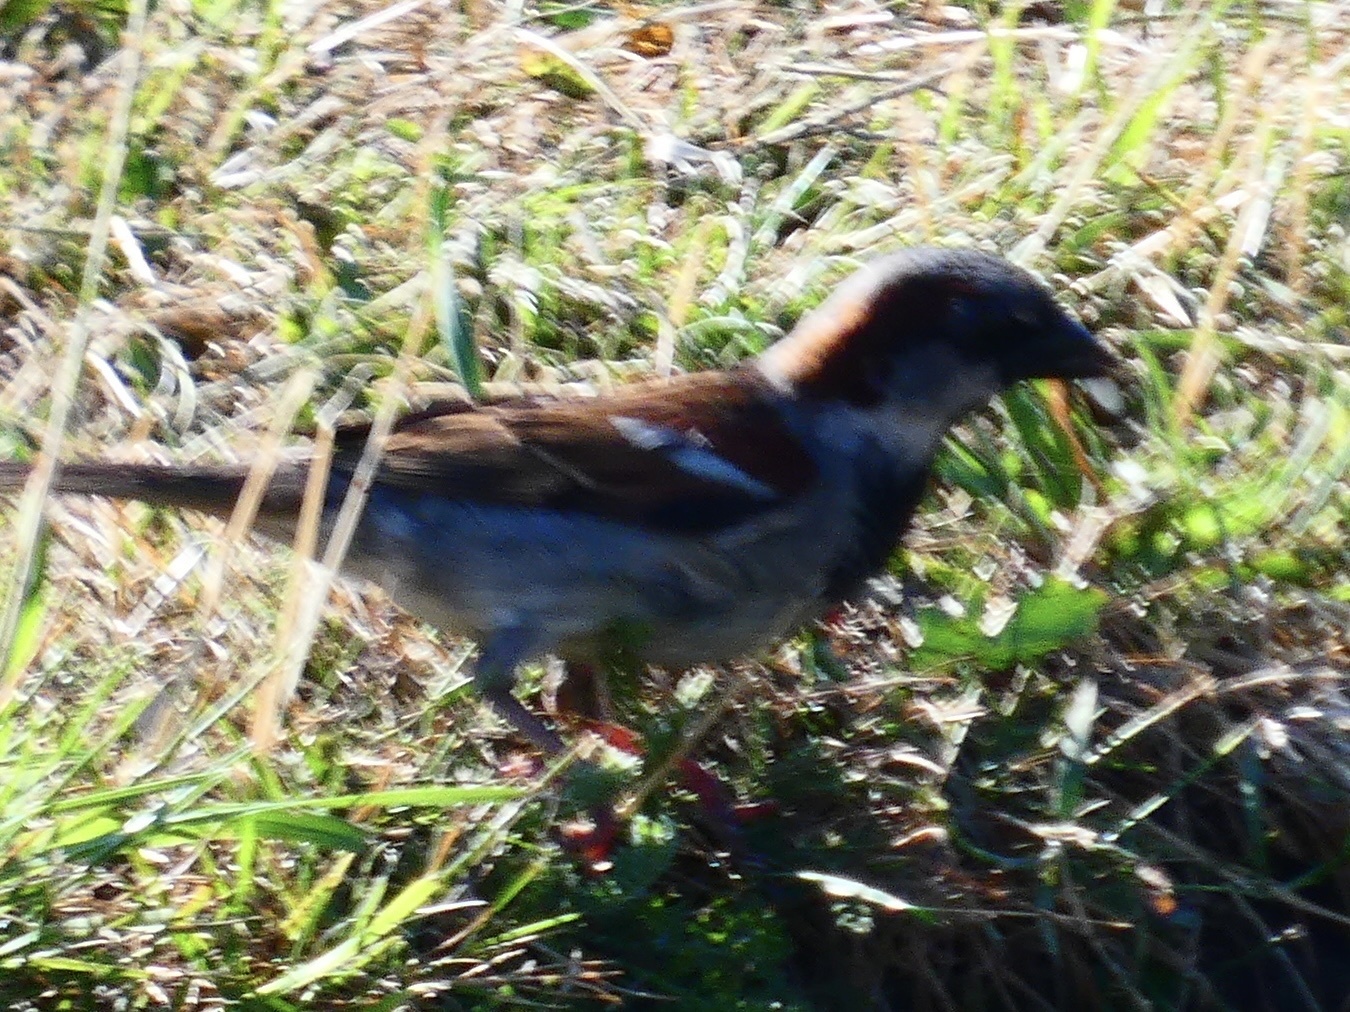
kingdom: Animalia
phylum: Chordata
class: Aves
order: Passeriformes
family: Passeridae
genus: Passer
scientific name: Passer domesticus
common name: House sparrow
